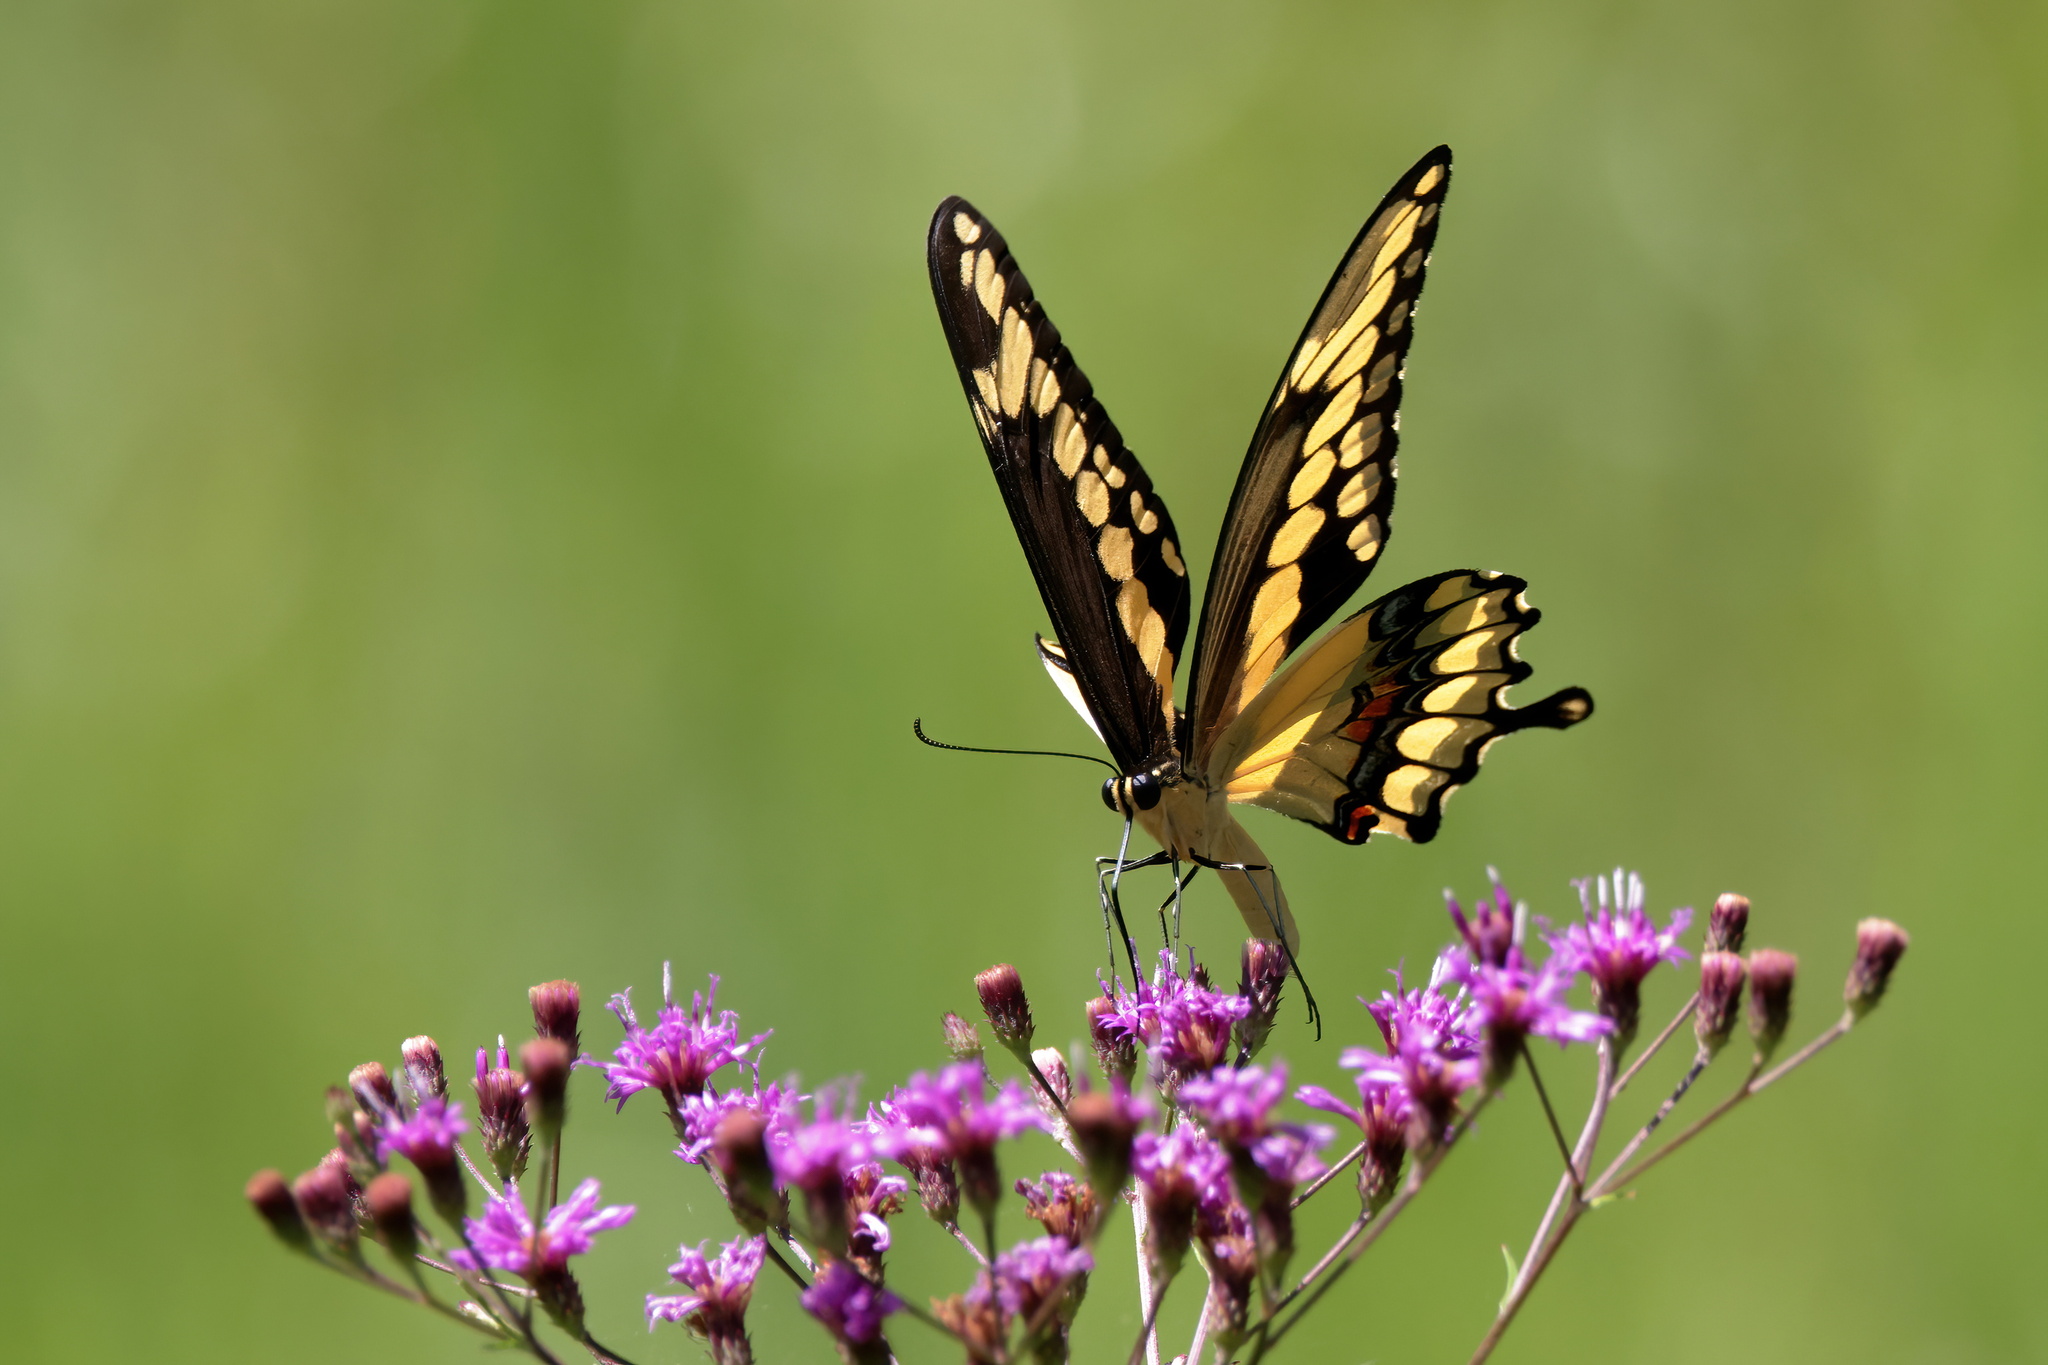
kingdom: Animalia
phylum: Arthropoda
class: Insecta
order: Lepidoptera
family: Papilionidae
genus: Papilio
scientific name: Papilio cresphontes
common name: Giant swallowtail
